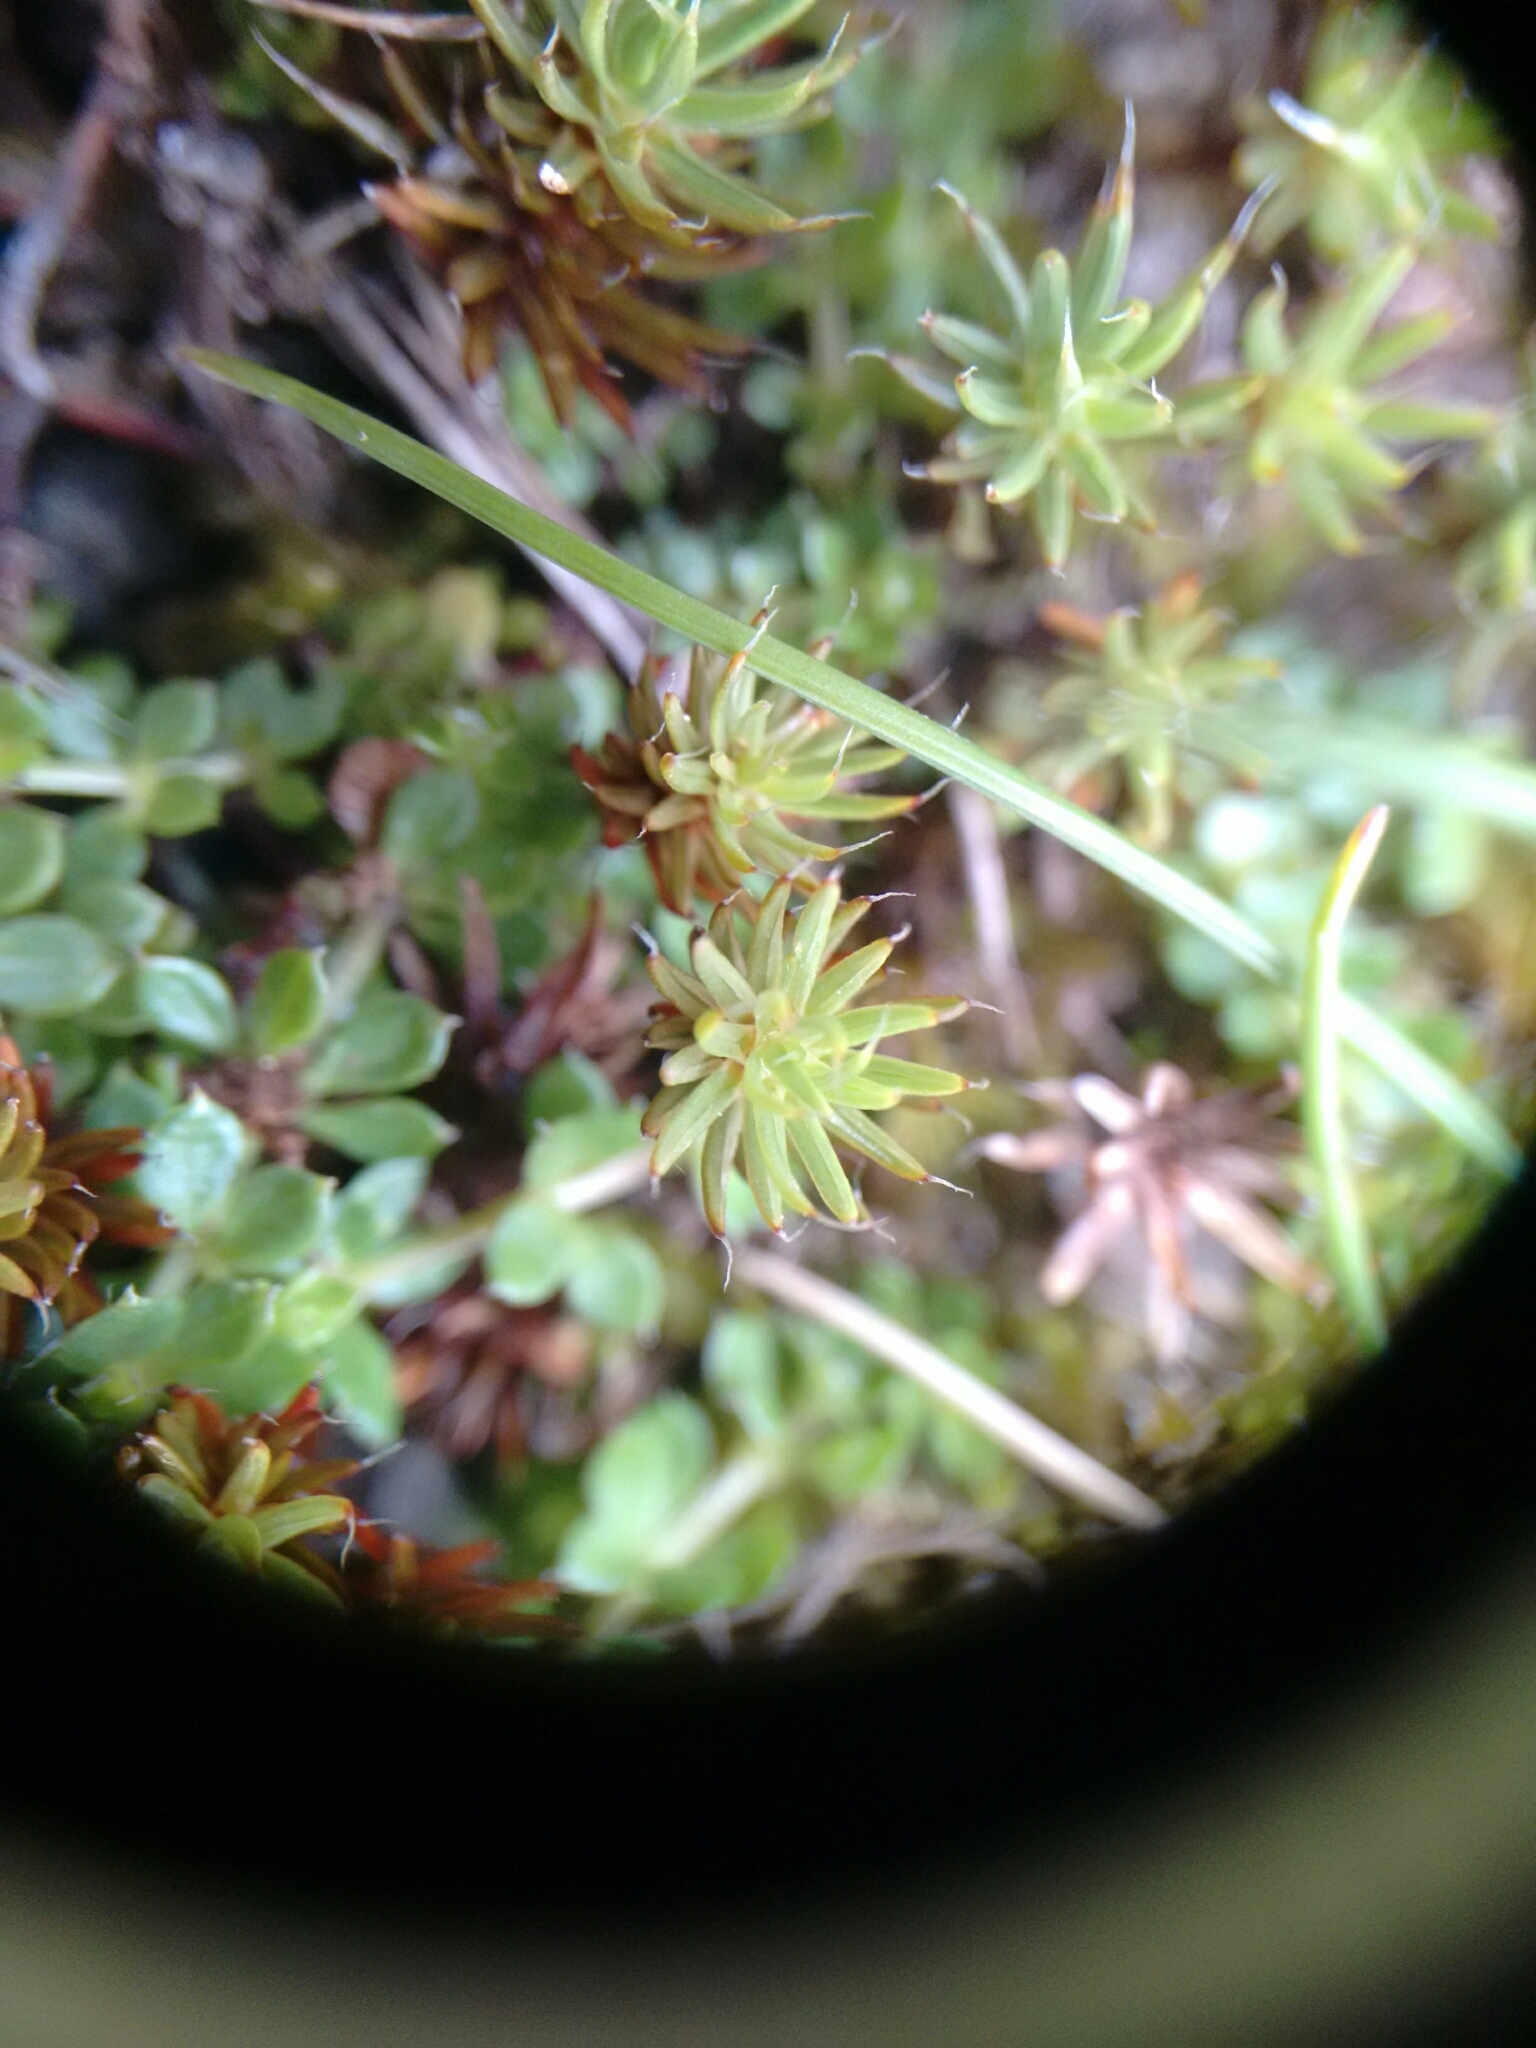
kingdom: Plantae
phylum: Bryophyta
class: Polytrichopsida
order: Polytrichales
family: Polytrichaceae
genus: Polytrichum
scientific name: Polytrichum piliferum
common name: Bristly haircap
